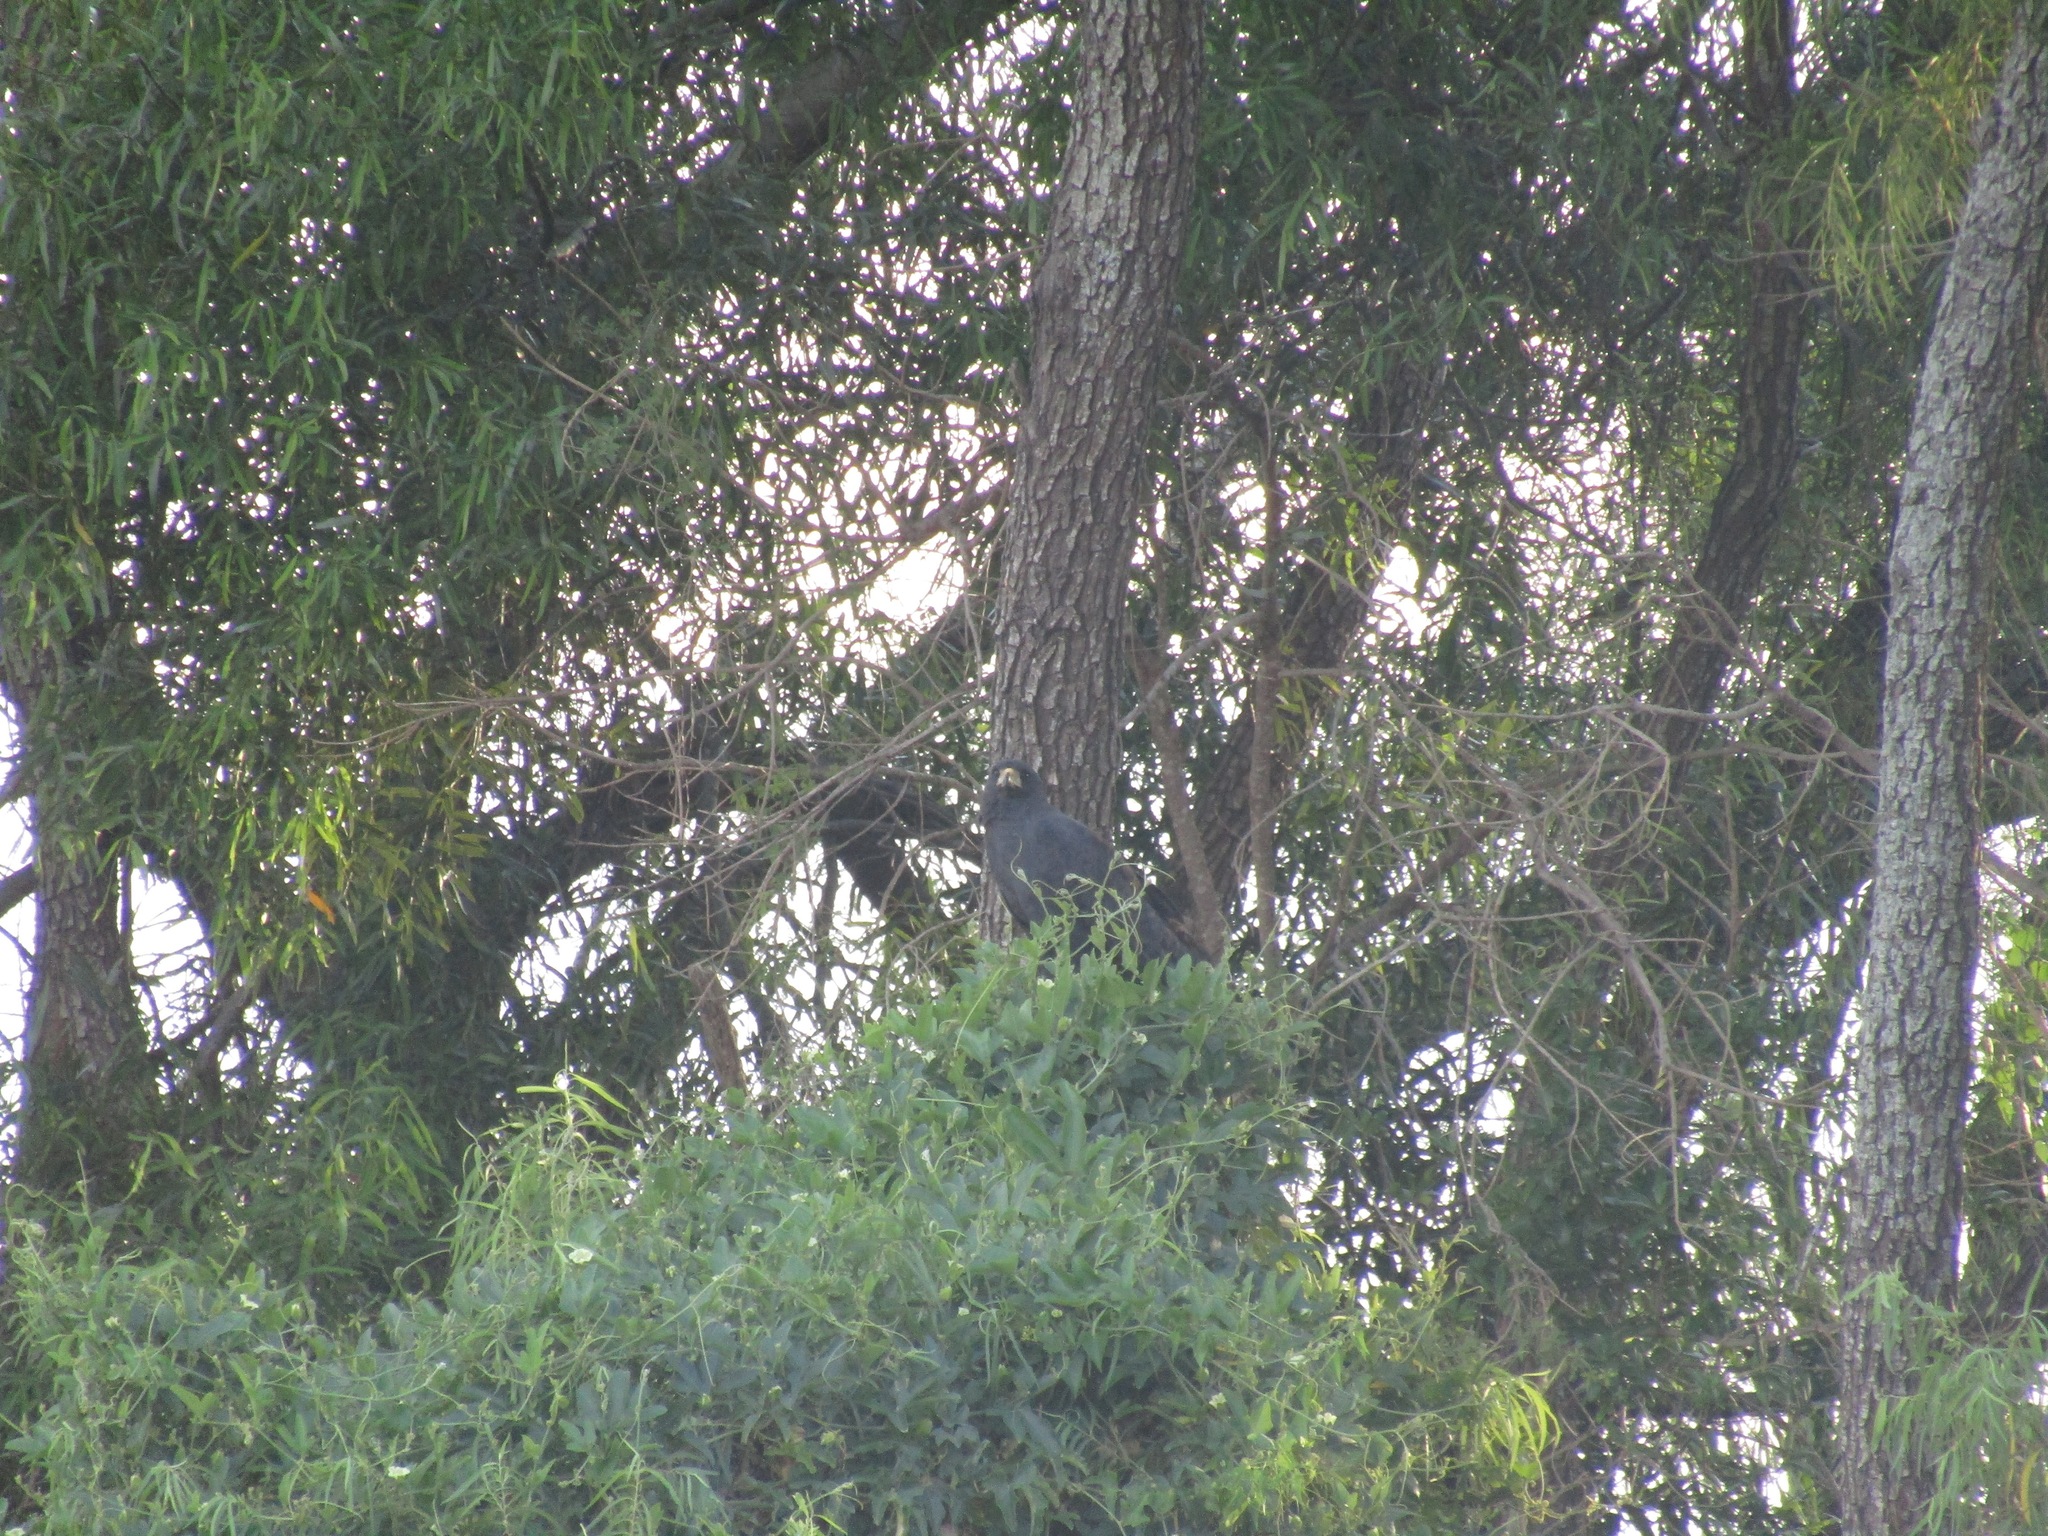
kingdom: Animalia
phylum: Chordata
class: Aves
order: Accipitriformes
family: Accipitridae
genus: Buteogallus
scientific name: Buteogallus urubitinga
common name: Great black hawk
